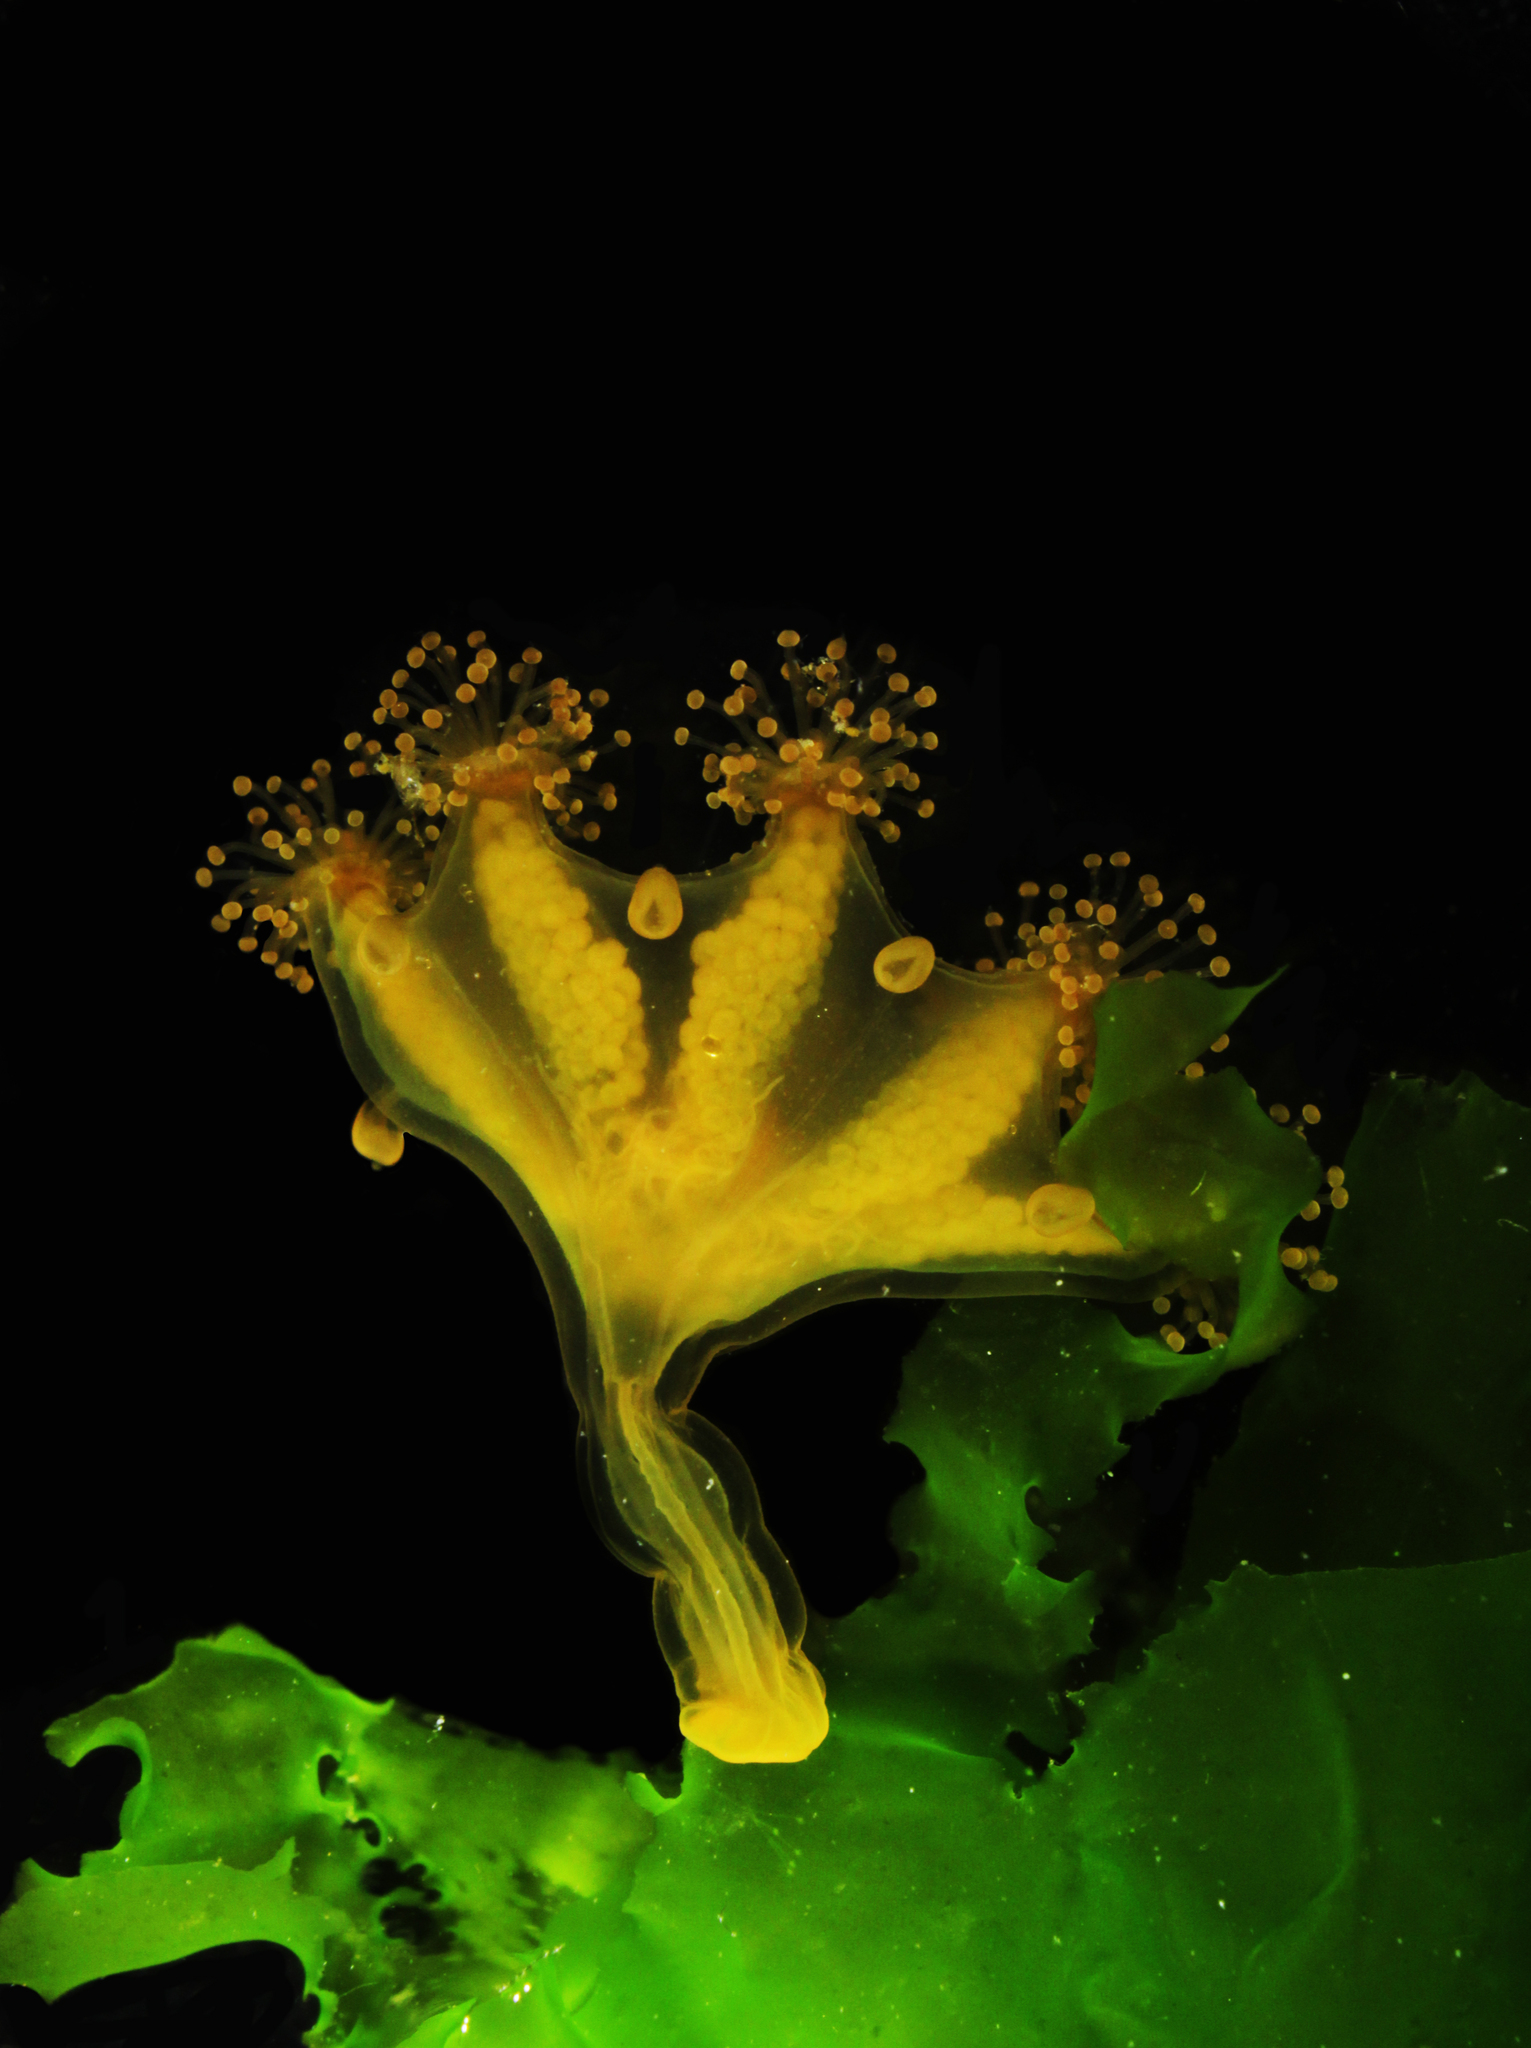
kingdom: Animalia
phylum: Cnidaria
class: Staurozoa
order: Stauromedusae
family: Haliclystidae
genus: Haliclystus
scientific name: Haliclystus auricula
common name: Kaleidoscope jellyfish
